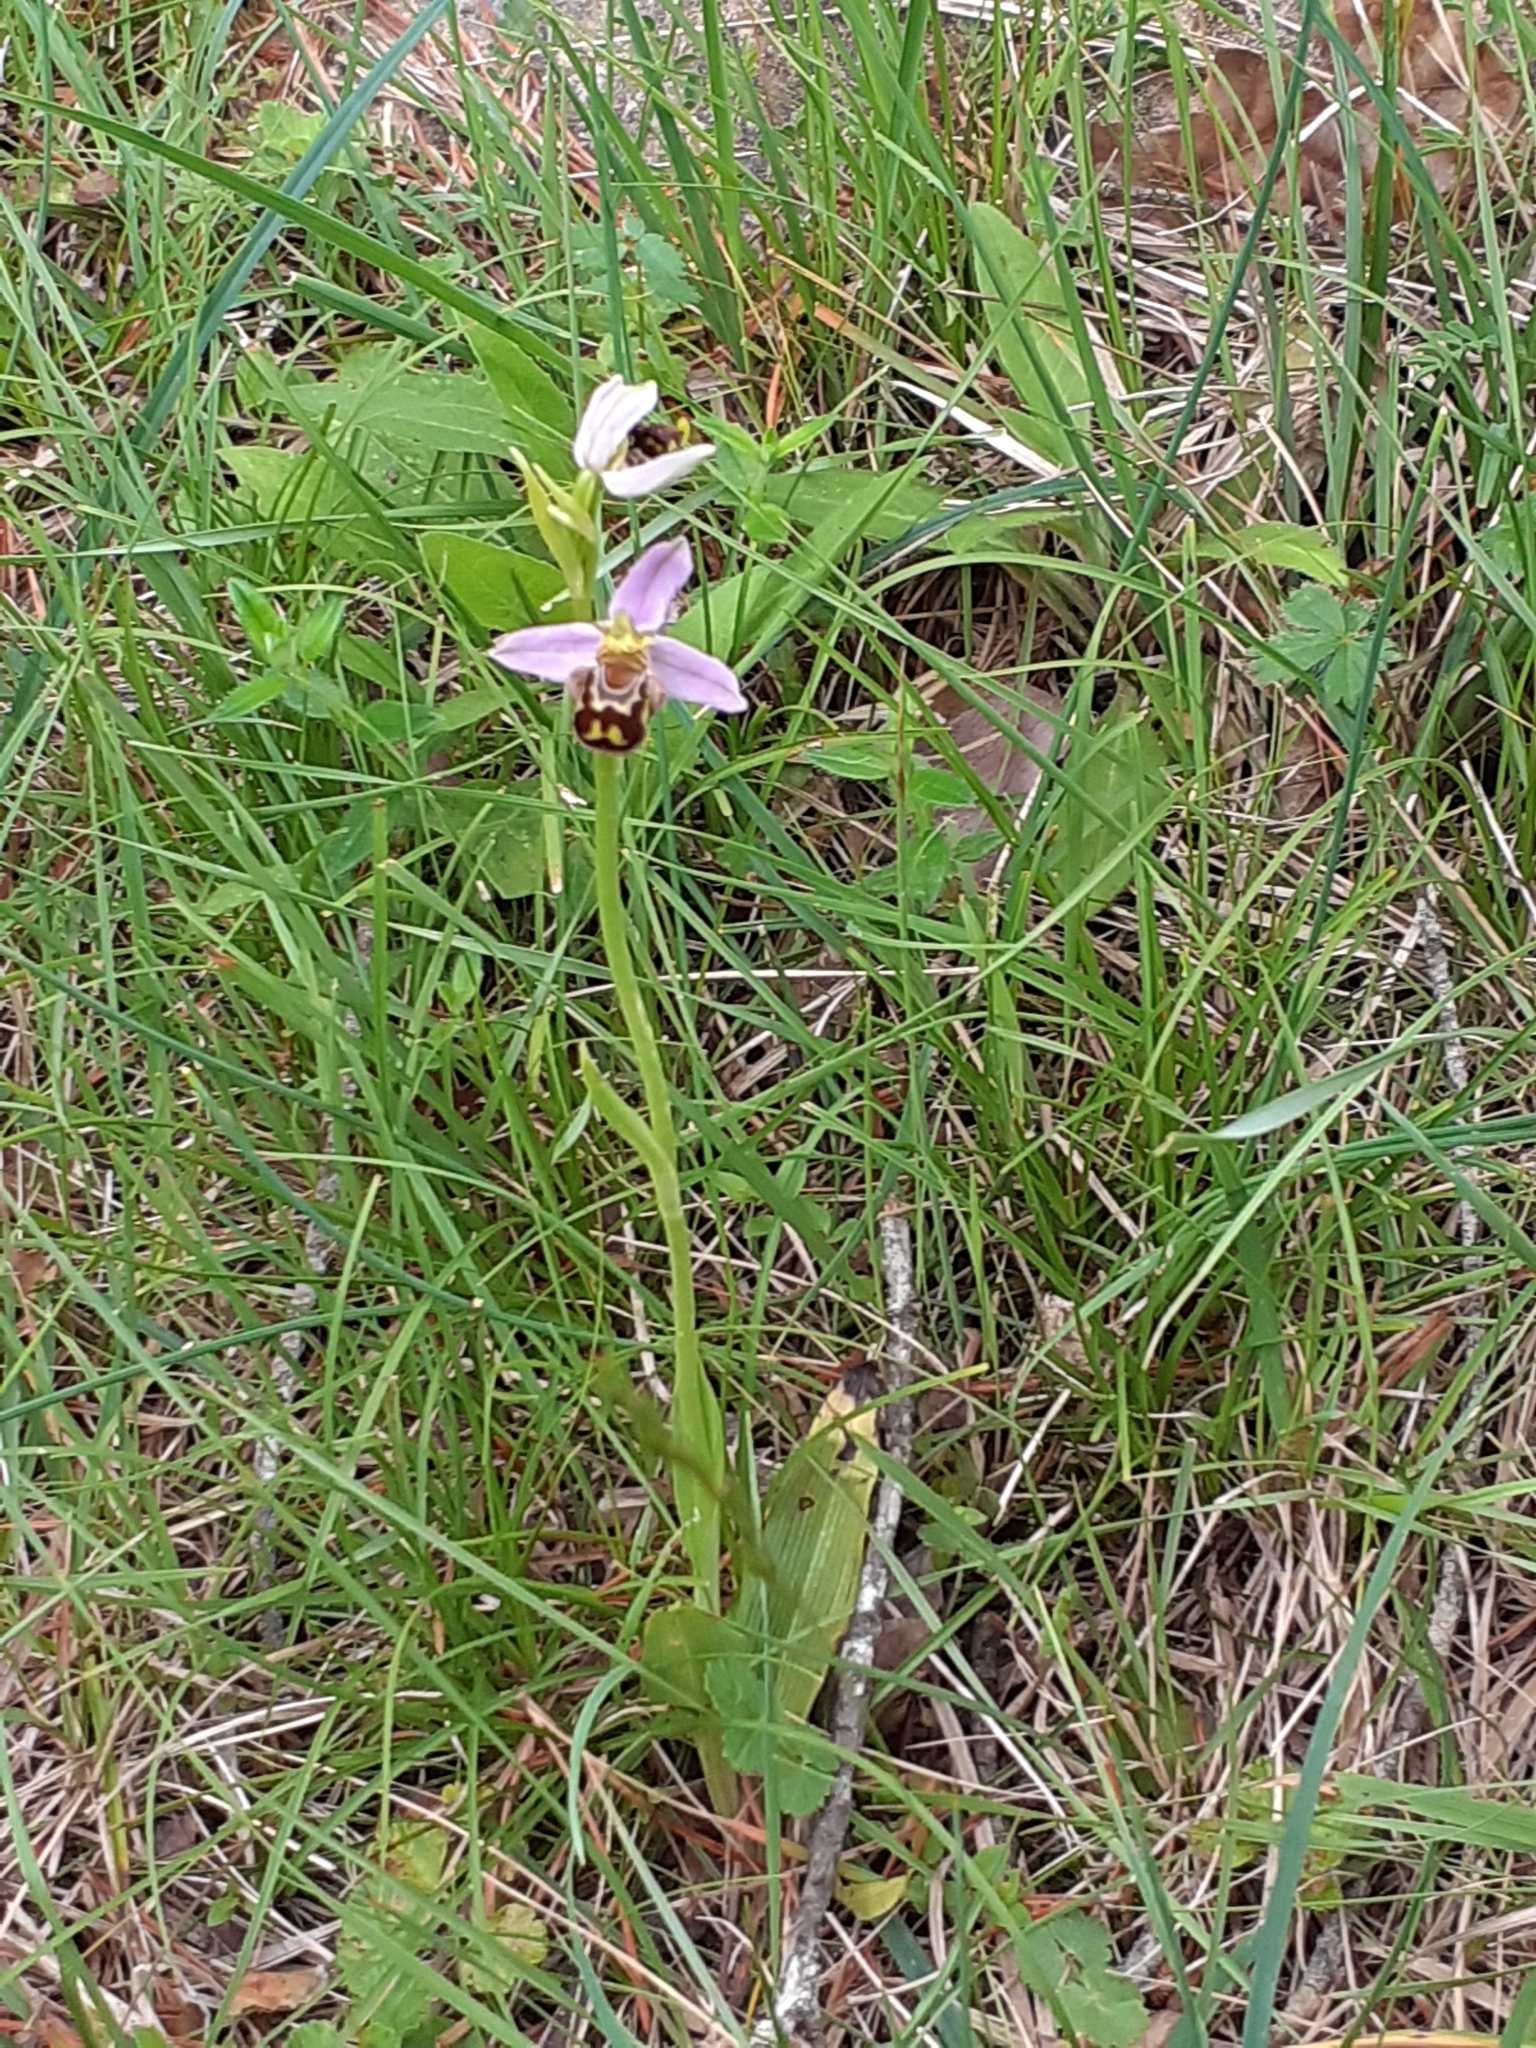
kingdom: Plantae
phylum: Tracheophyta
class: Liliopsida
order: Asparagales
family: Orchidaceae
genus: Ophrys
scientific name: Ophrys apifera
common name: Bee orchid
